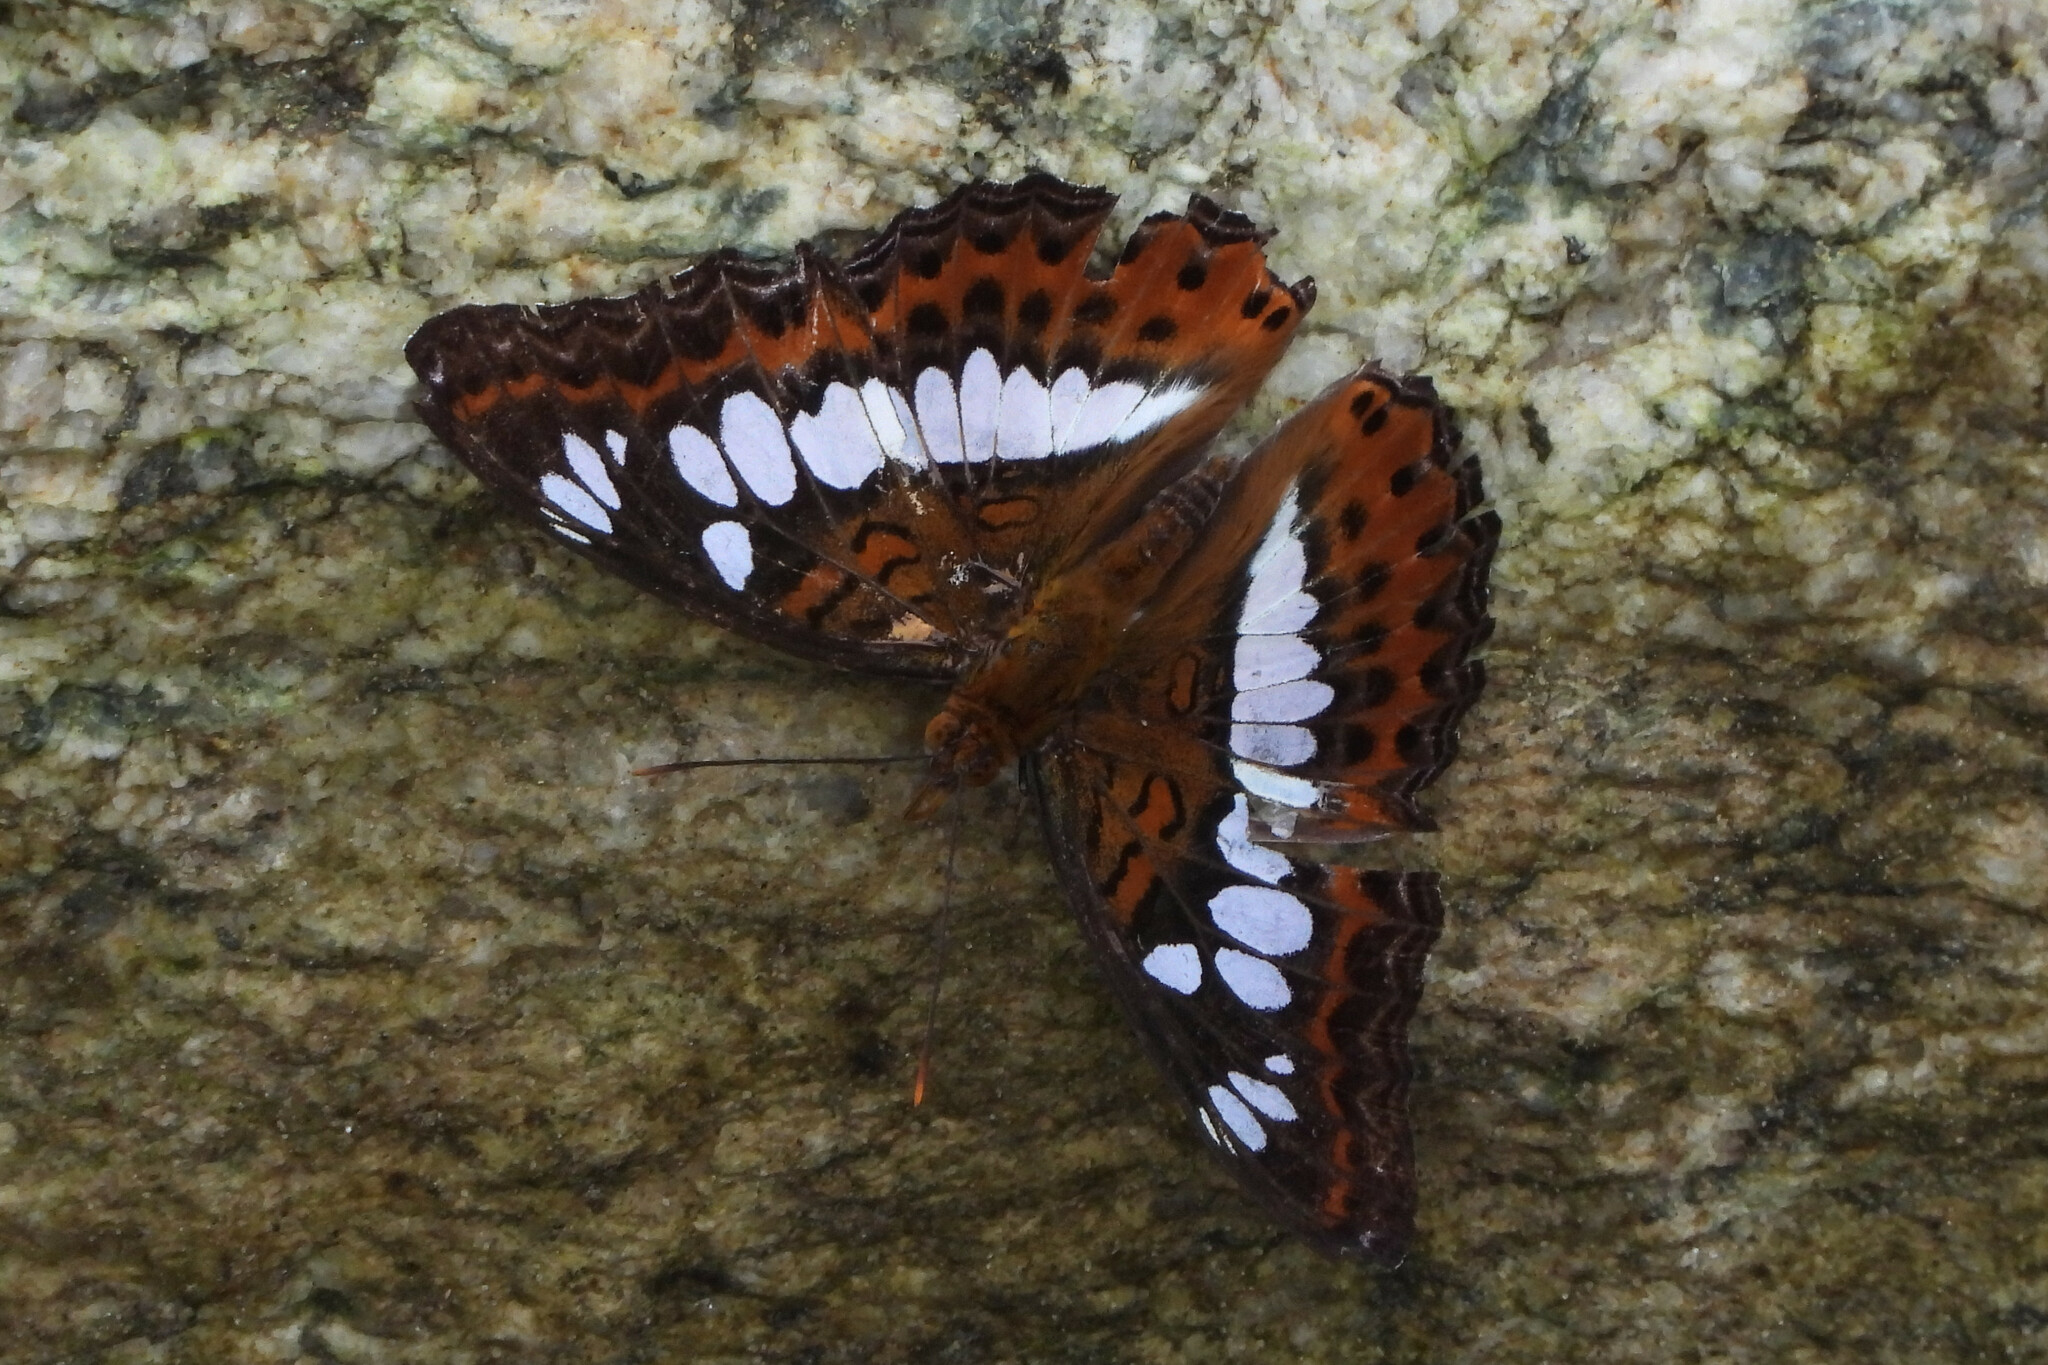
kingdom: Animalia
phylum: Arthropoda
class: Insecta
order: Lepidoptera
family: Nymphalidae
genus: Limenitis
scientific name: Limenitis Moduza procris
